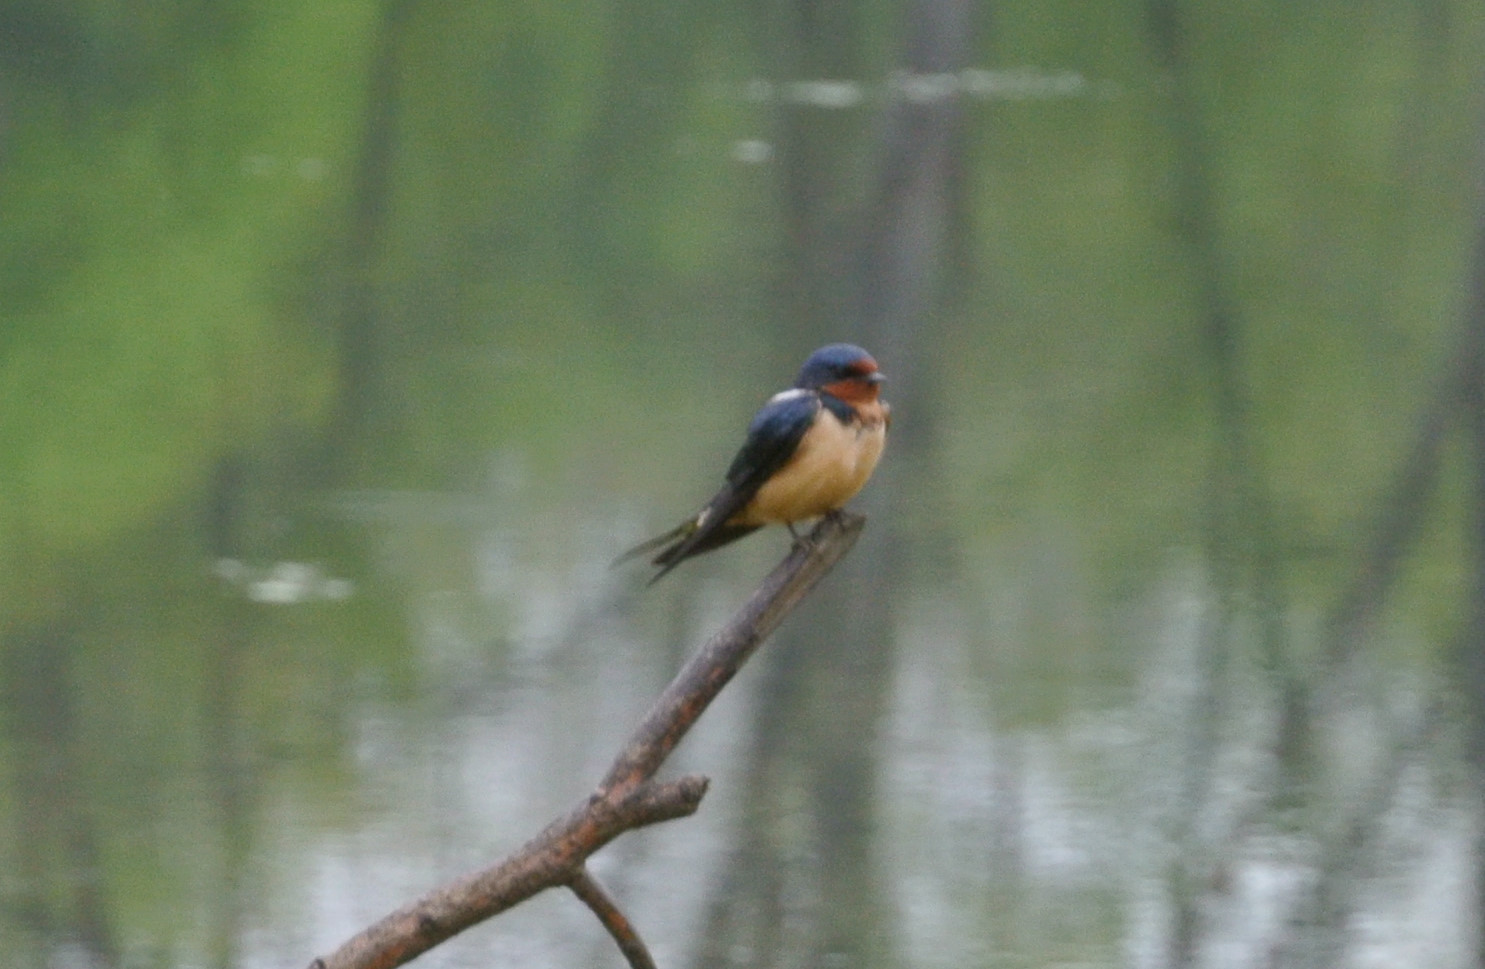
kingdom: Animalia
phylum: Chordata
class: Aves
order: Passeriformes
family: Hirundinidae
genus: Hirundo
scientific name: Hirundo rustica
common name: Barn swallow
